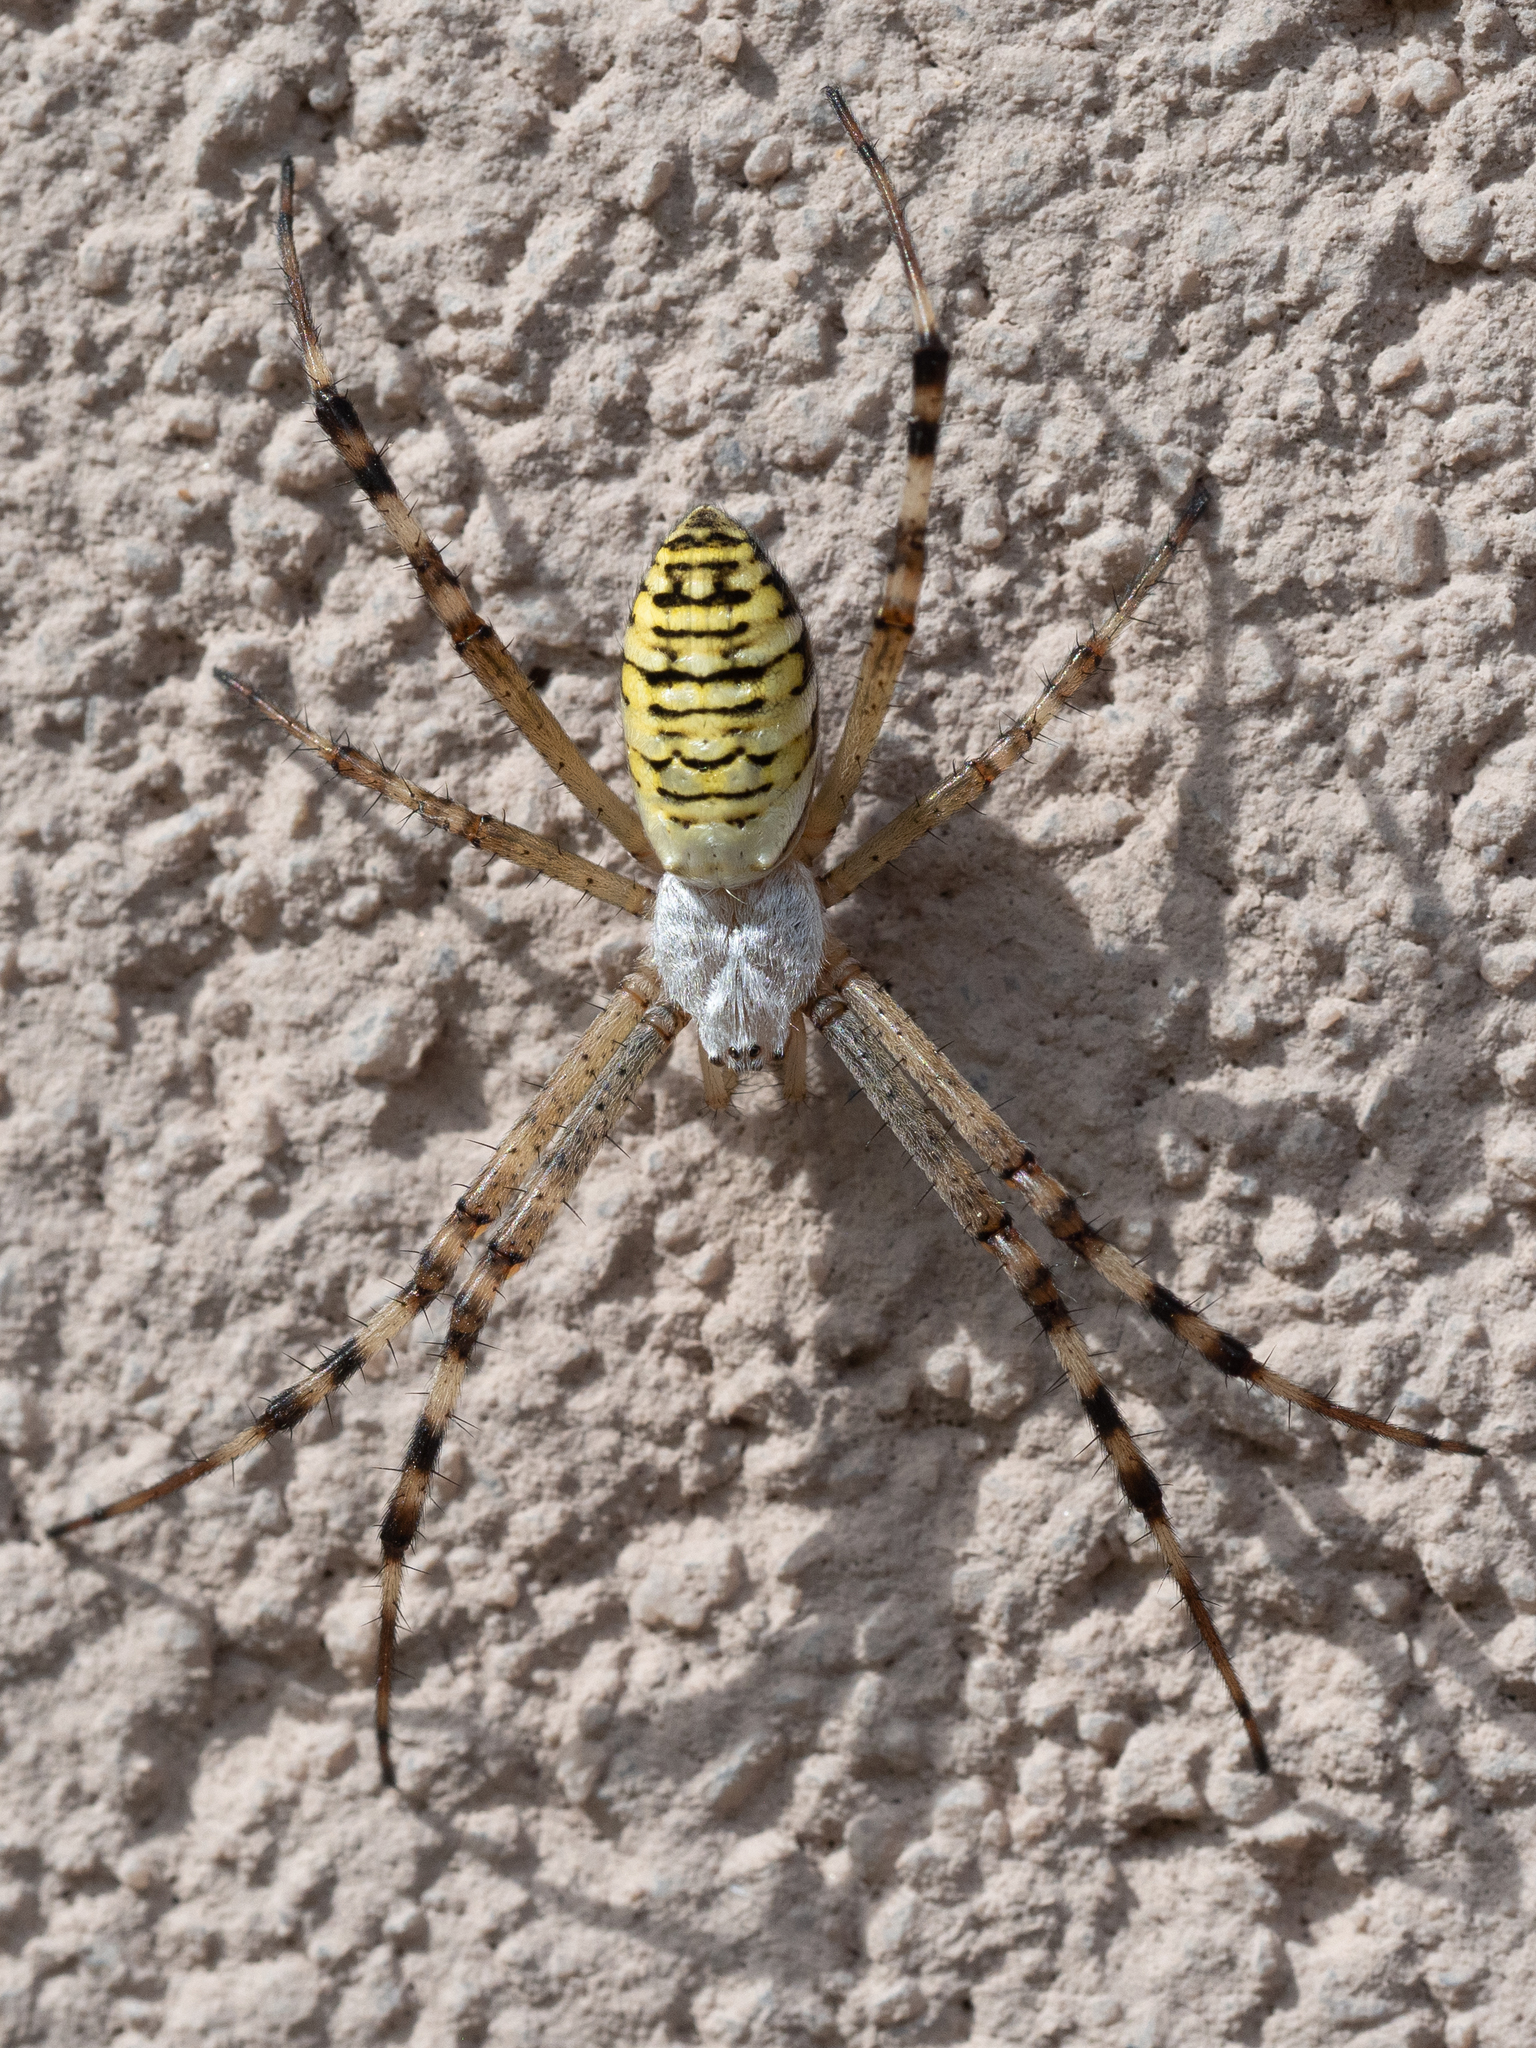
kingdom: Animalia
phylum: Arthropoda
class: Arachnida
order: Araneae
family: Araneidae
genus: Argiope
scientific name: Argiope bruennichi
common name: Wasp spider
